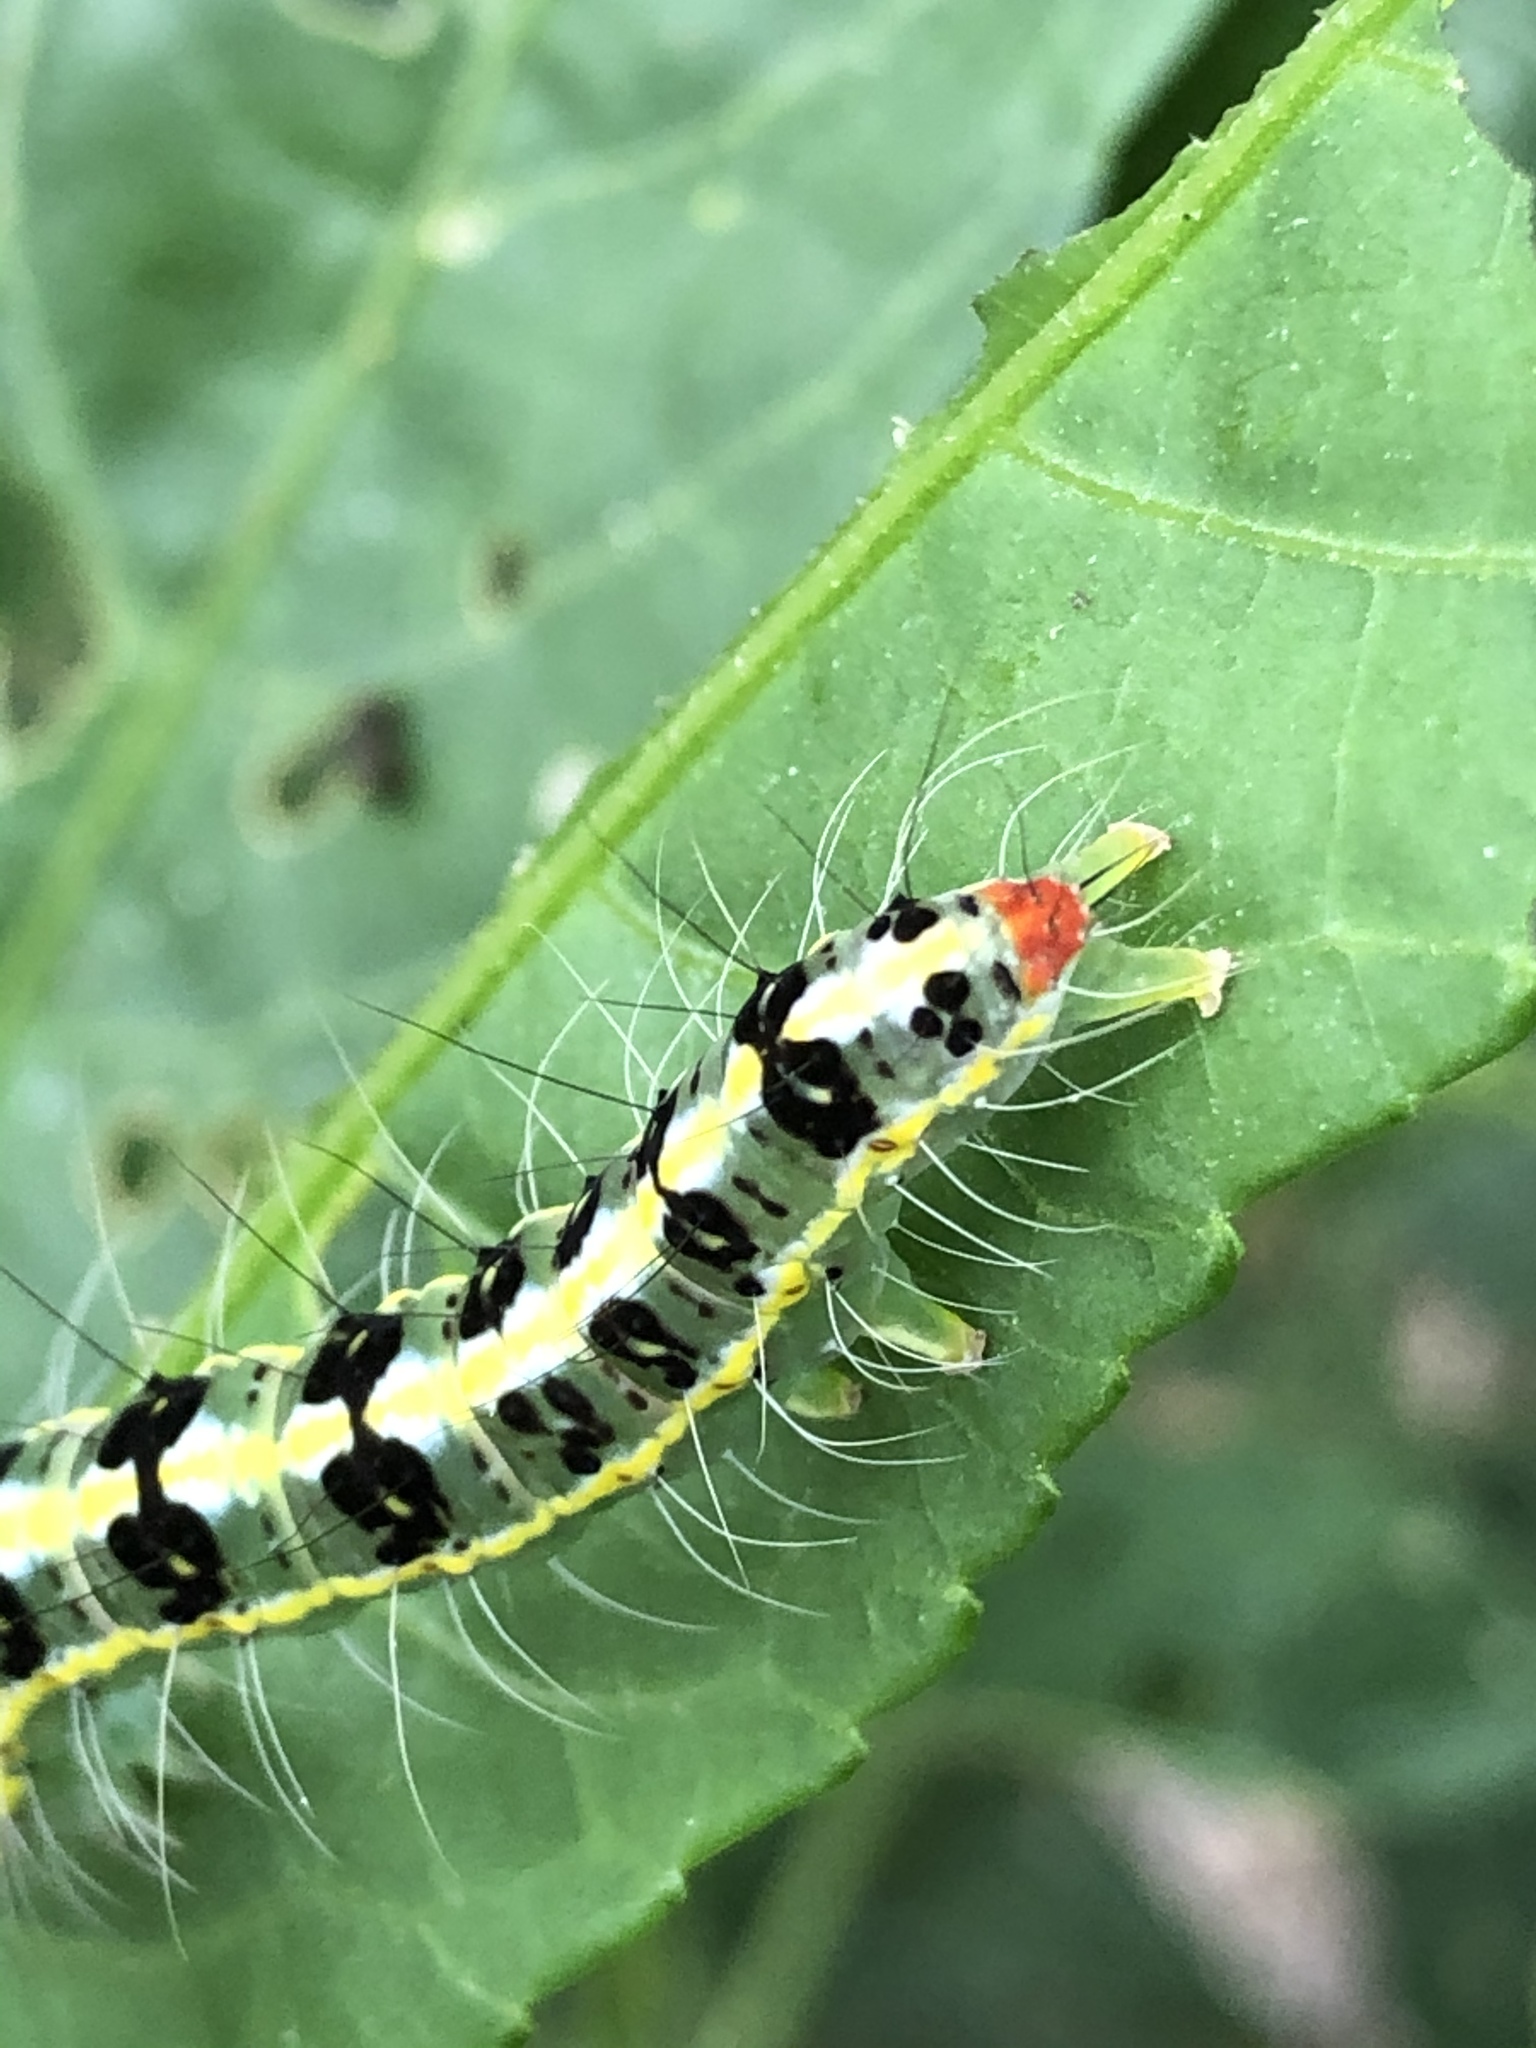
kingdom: Animalia
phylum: Arthropoda
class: Insecta
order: Lepidoptera
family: Nolidae
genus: Xanthodes
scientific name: Xanthodes transversa
